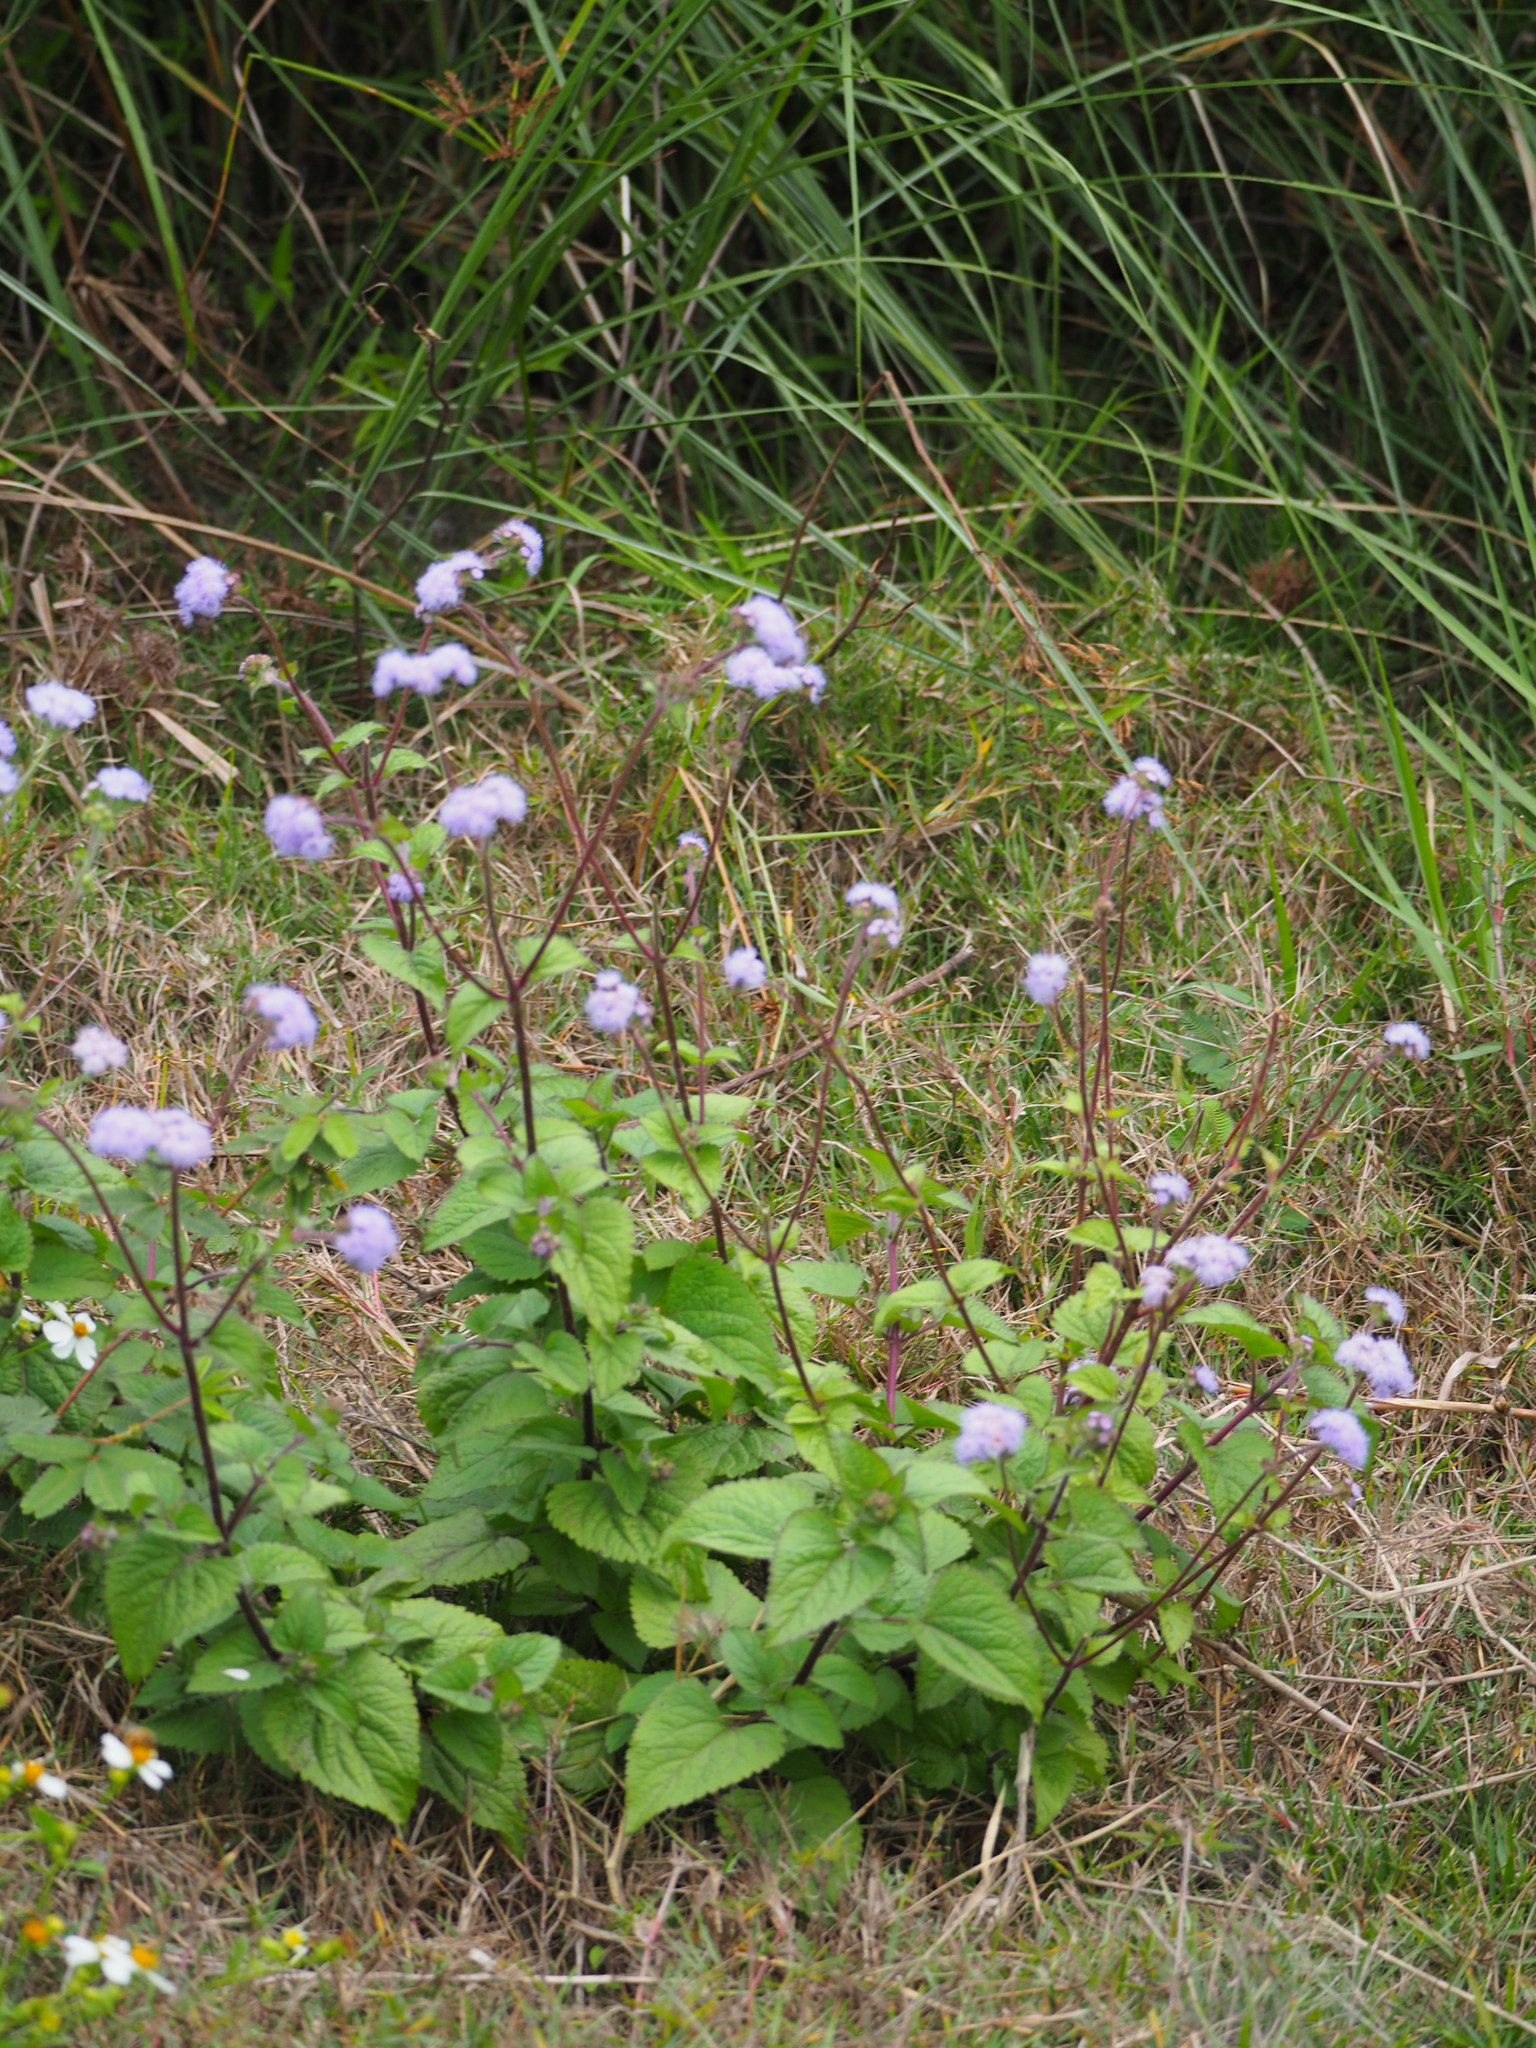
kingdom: Plantae
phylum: Tracheophyta
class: Magnoliopsida
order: Asterales
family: Asteraceae
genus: Ageratum
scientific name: Ageratum houstonianum
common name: Bluemink
